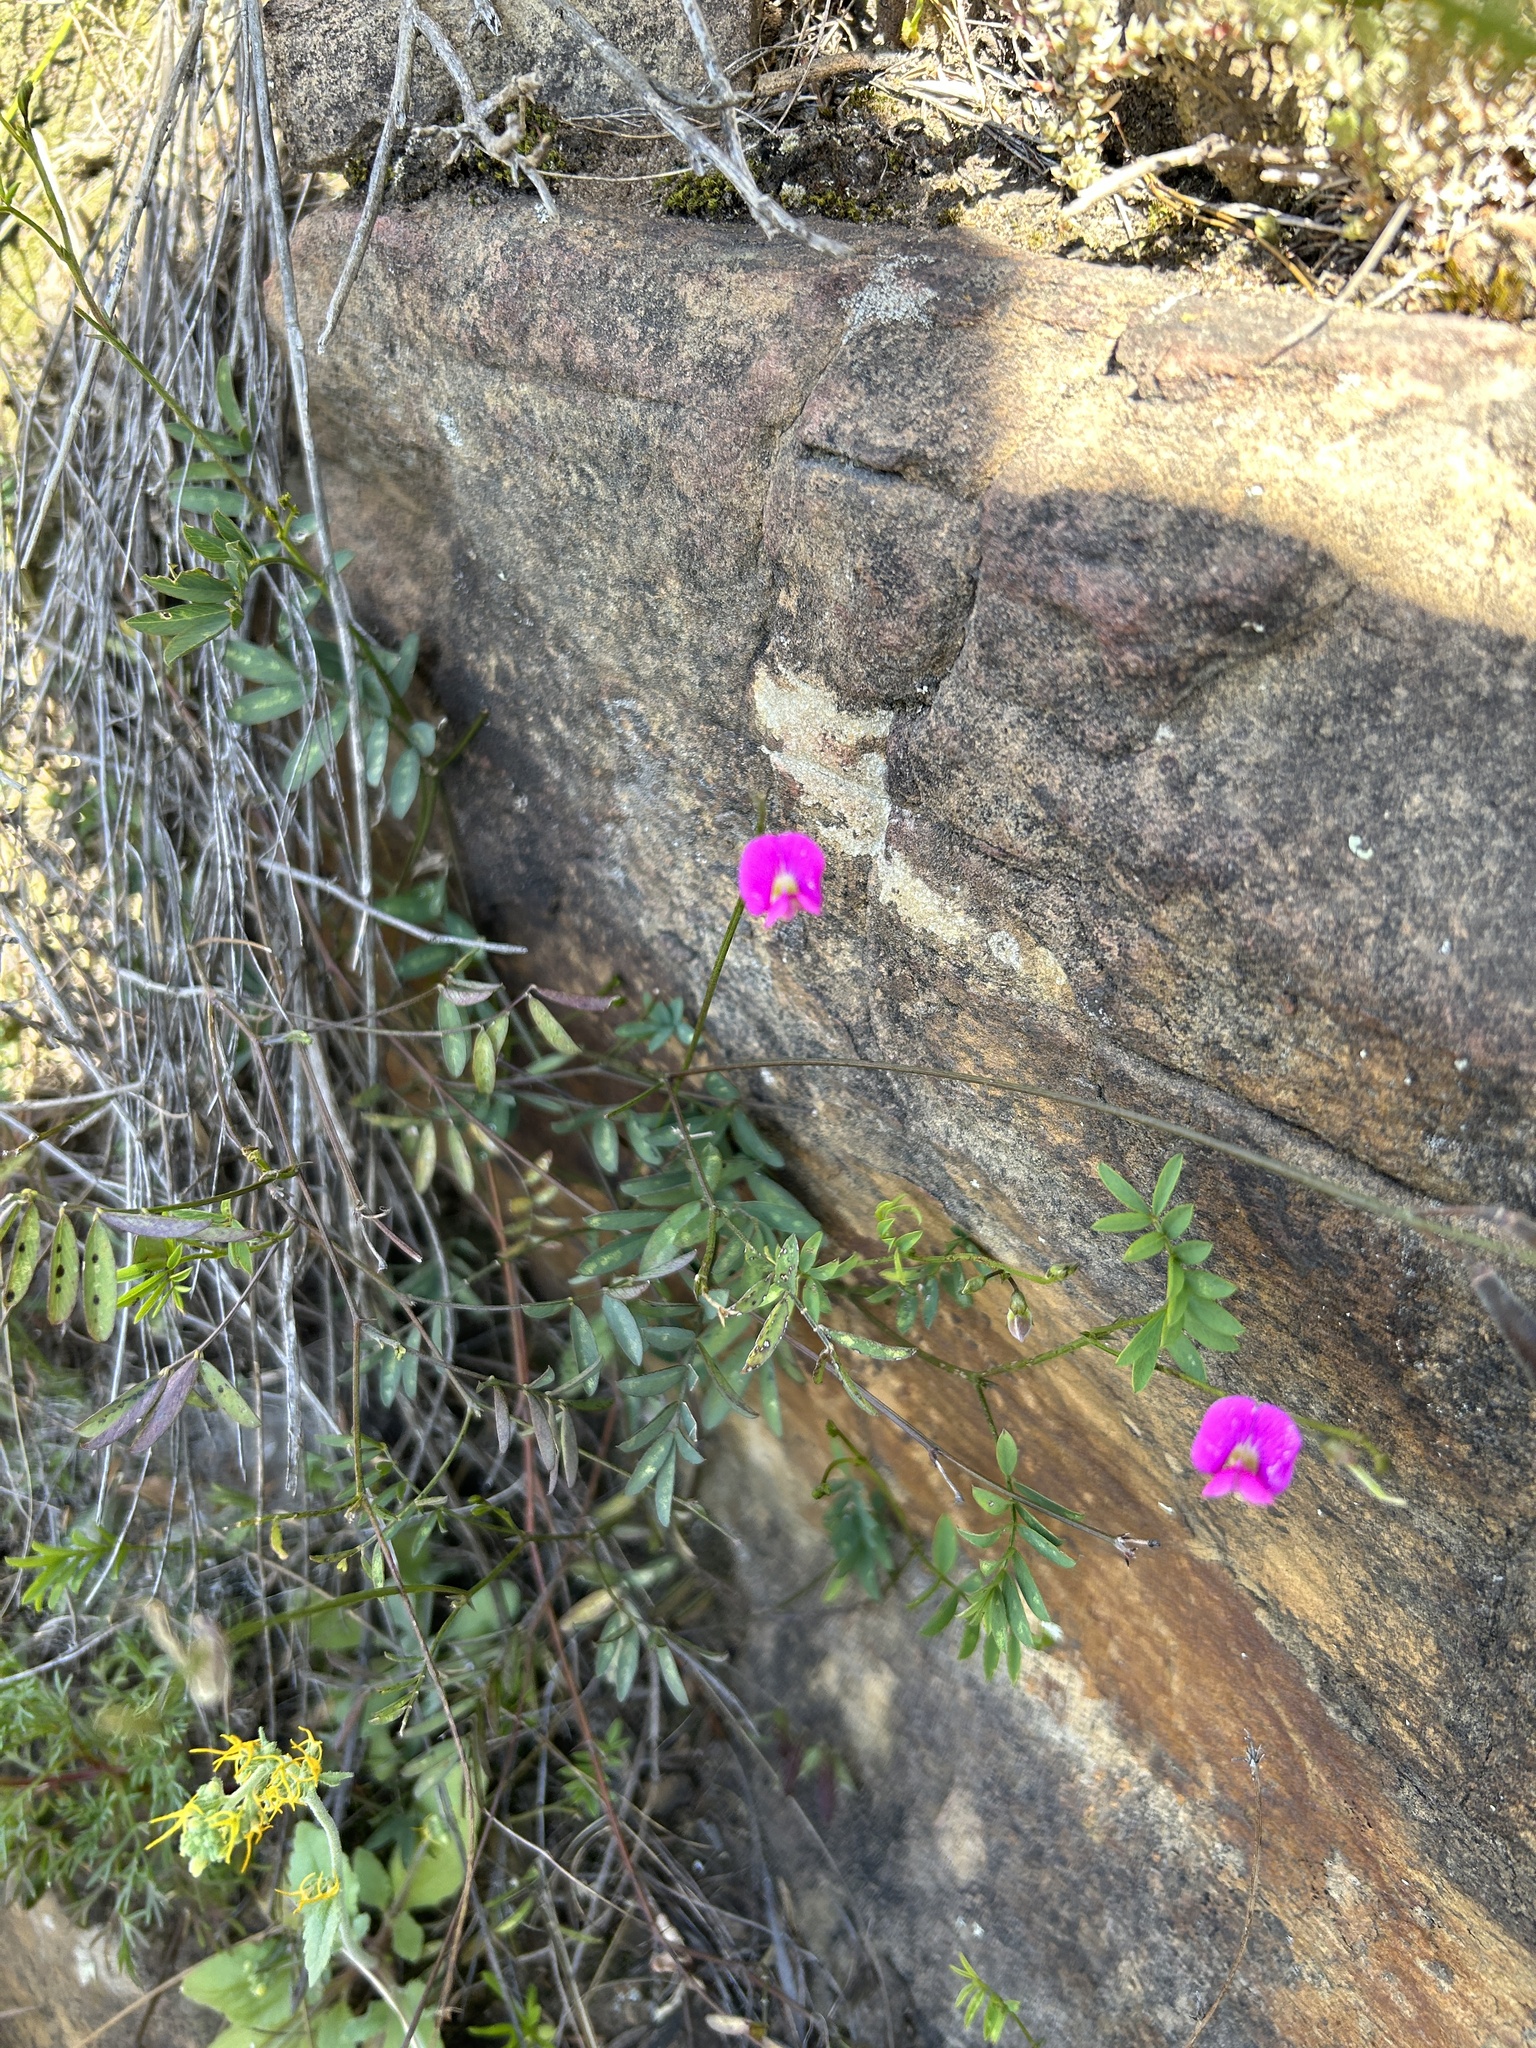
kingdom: Plantae
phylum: Tracheophyta
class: Magnoliopsida
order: Fabales
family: Fabaceae
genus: Tephrosia
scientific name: Tephrosia capensis
